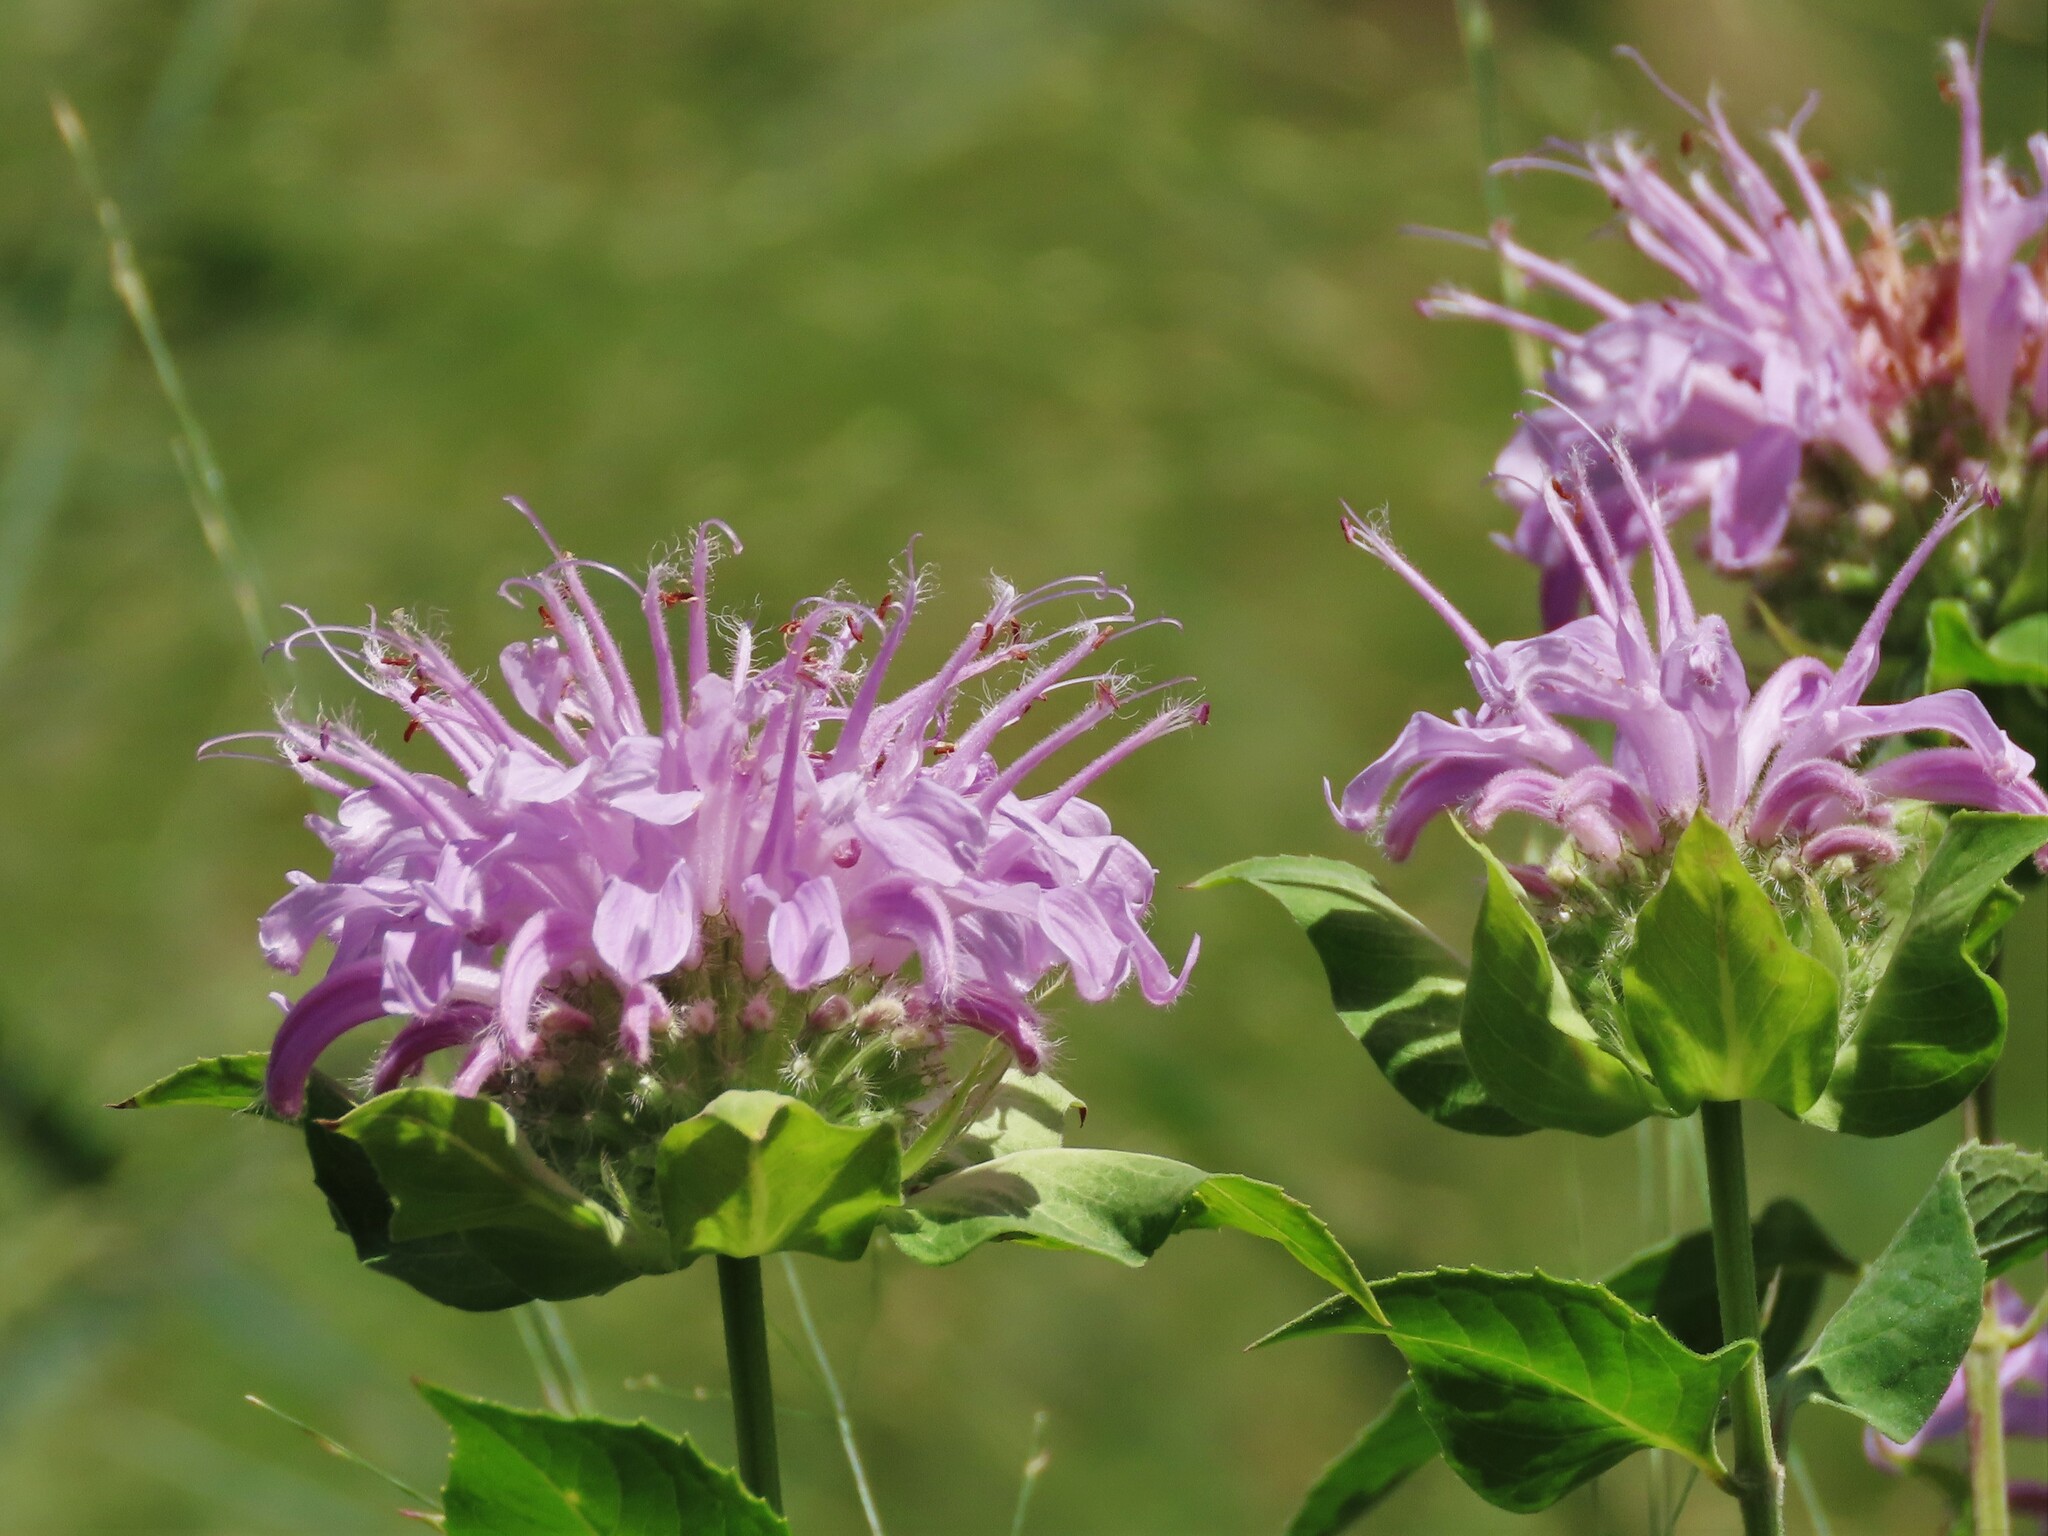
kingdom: Plantae
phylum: Tracheophyta
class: Magnoliopsida
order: Lamiales
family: Lamiaceae
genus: Monarda
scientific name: Monarda fistulosa
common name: Purple beebalm
